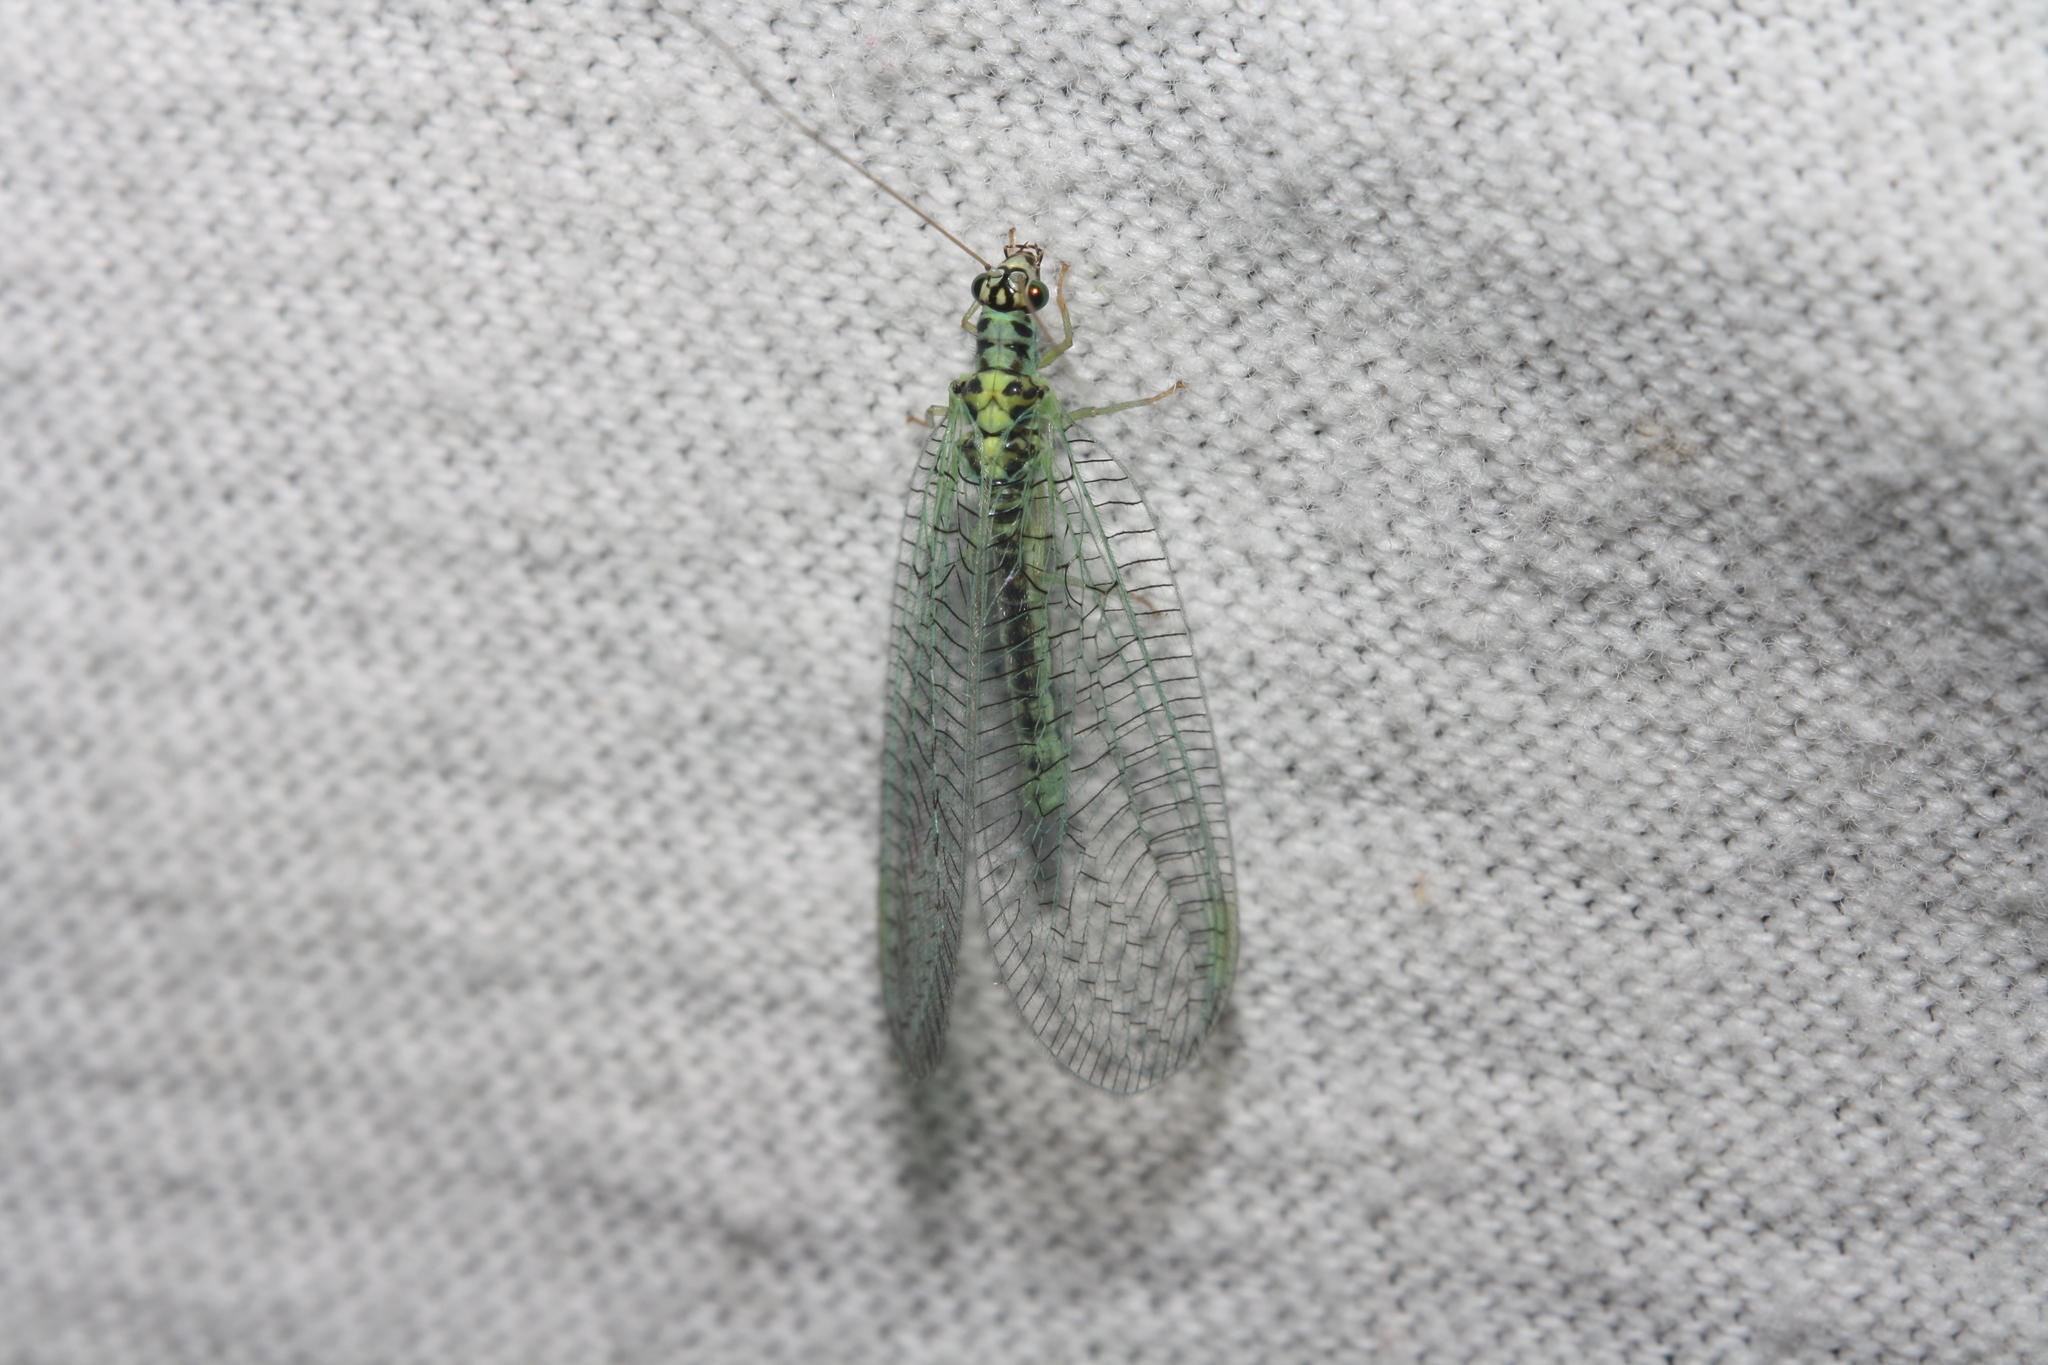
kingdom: Animalia
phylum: Arthropoda
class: Insecta
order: Neuroptera
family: Chrysopidae
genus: Chrysopa
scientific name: Chrysopa perla
